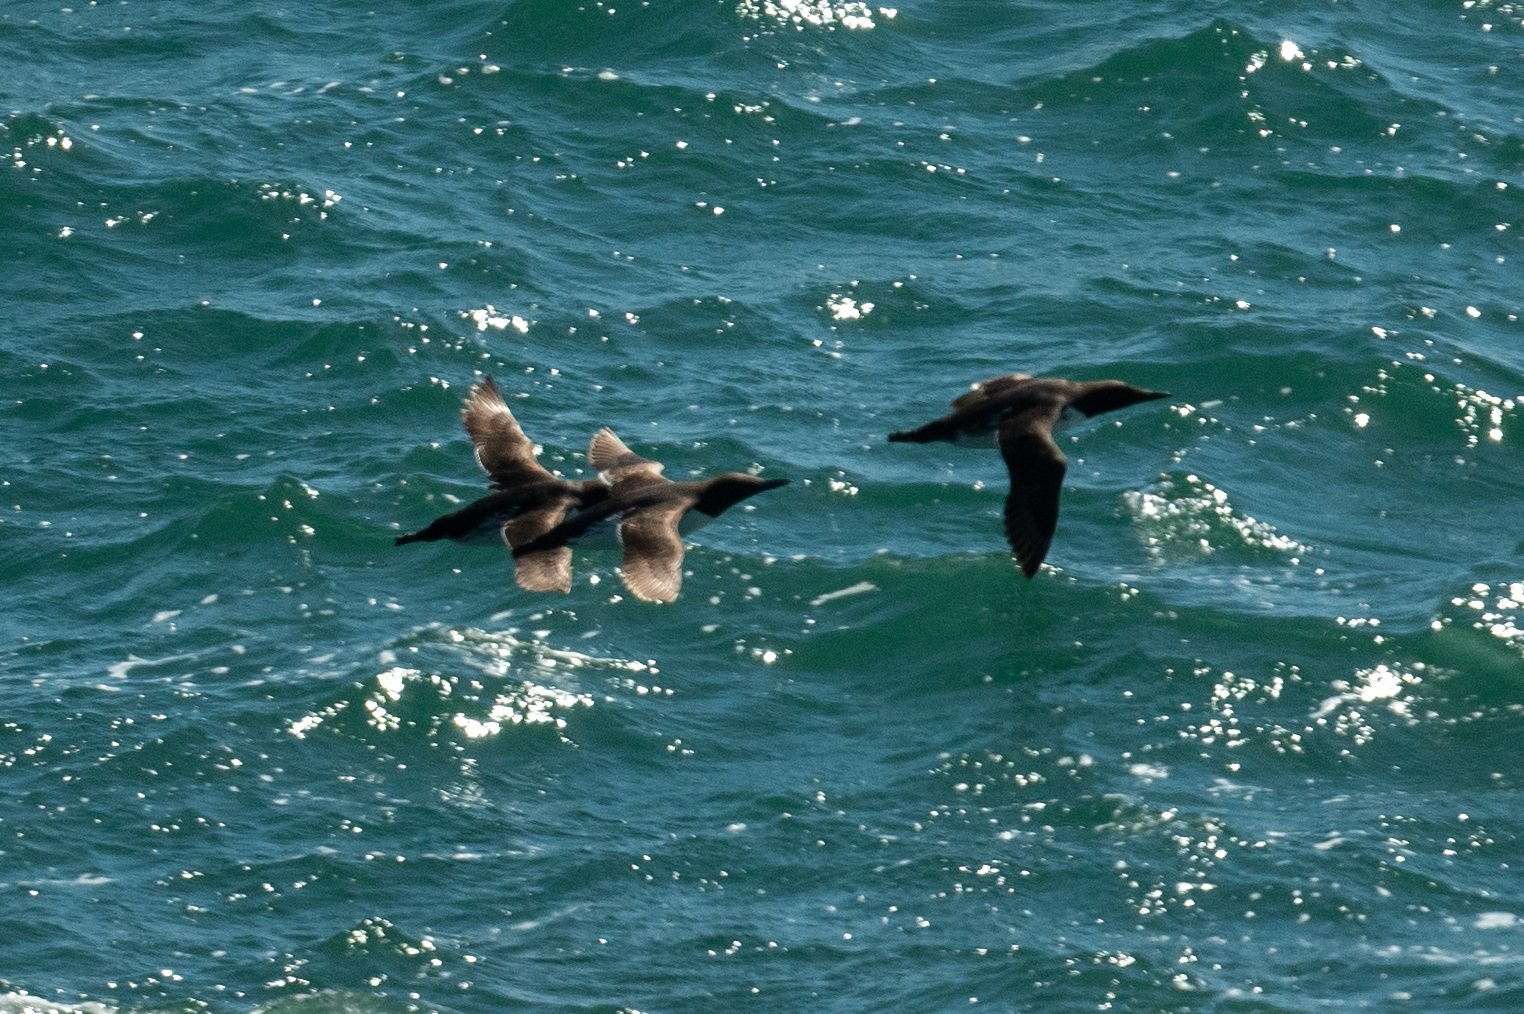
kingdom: Animalia
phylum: Chordata
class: Aves
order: Charadriiformes
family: Alcidae
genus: Uria
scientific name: Uria aalge
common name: Common murre
